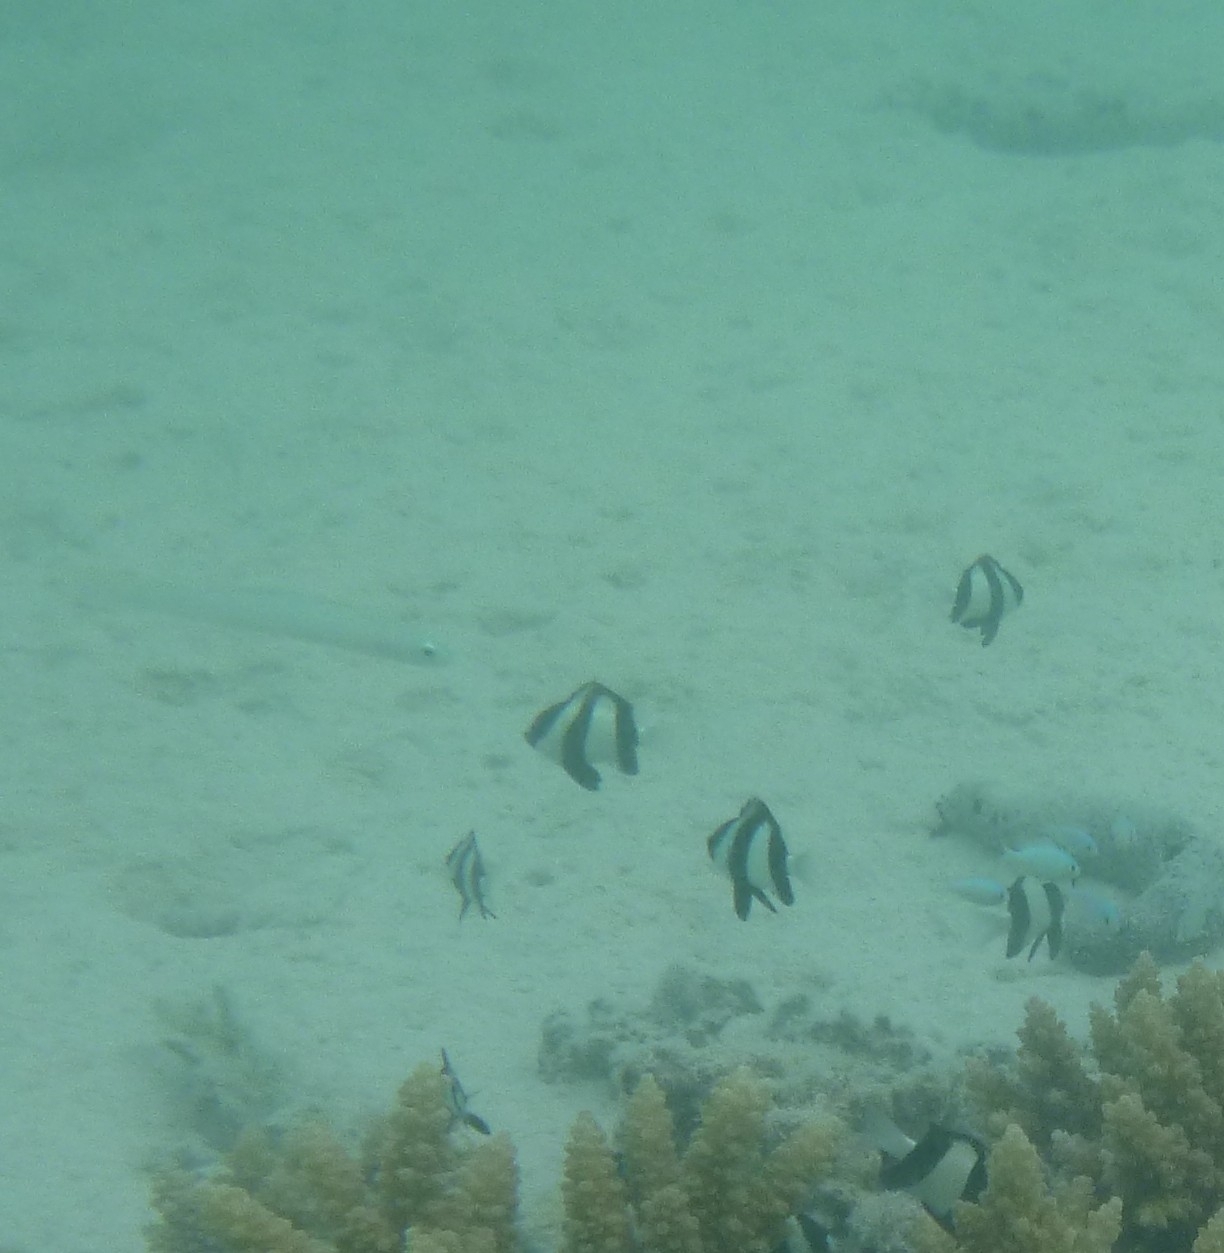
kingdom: Animalia
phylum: Chordata
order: Perciformes
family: Pomacentridae
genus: Dascyllus
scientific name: Dascyllus aruanus
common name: Humbug dascyllus
